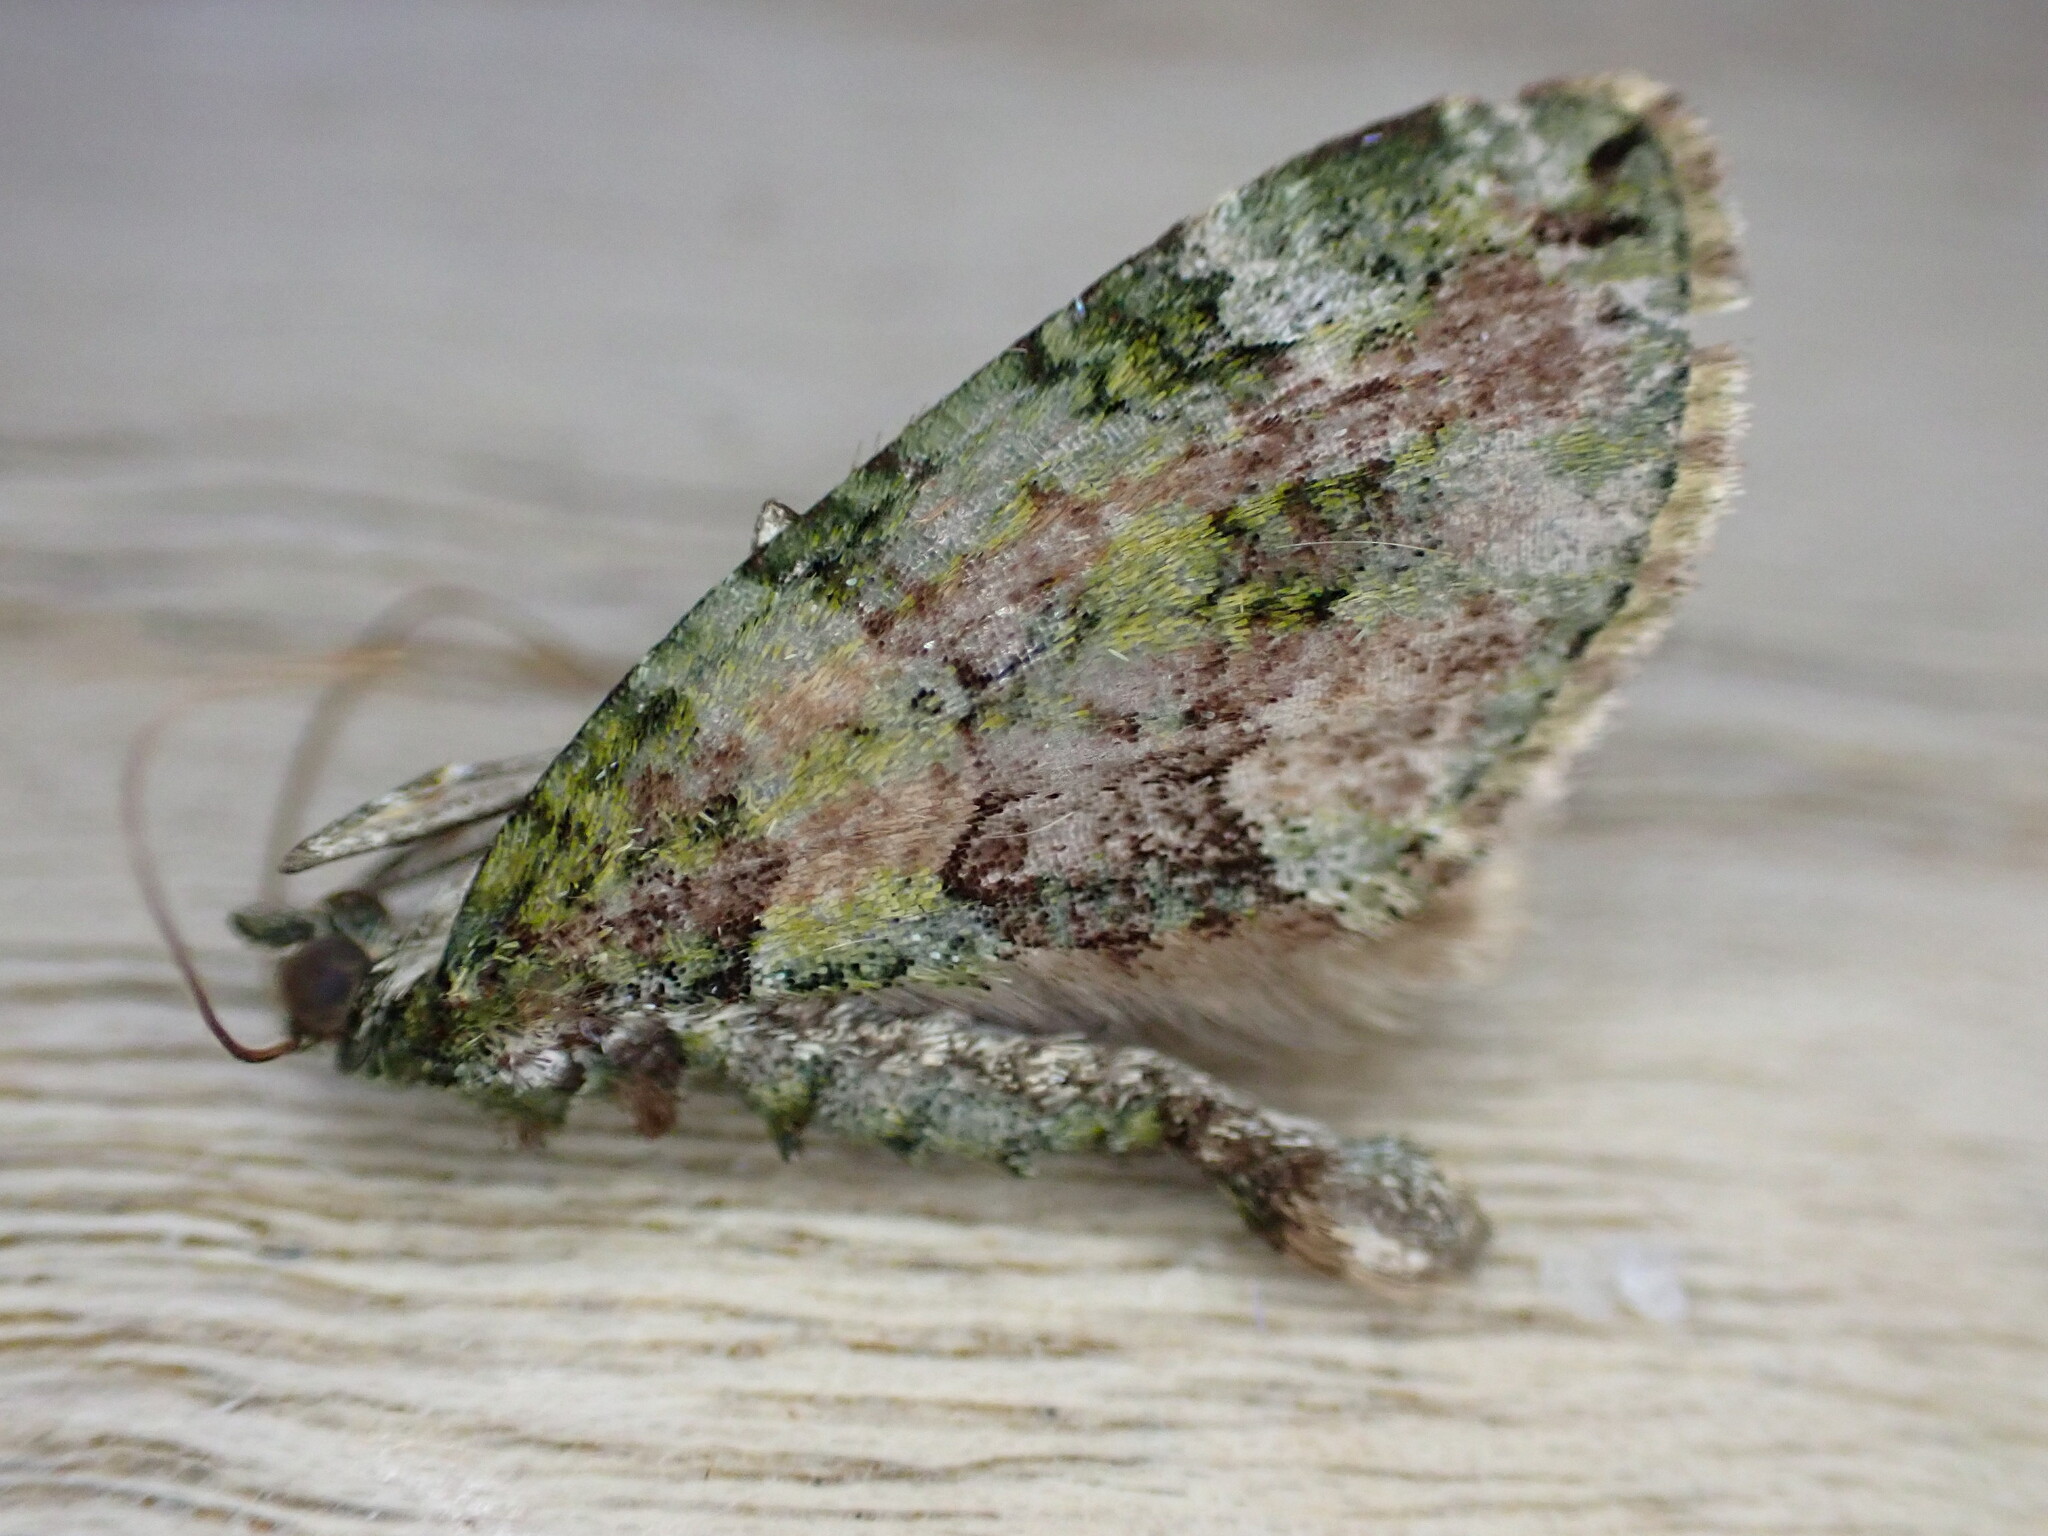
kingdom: Animalia
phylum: Arthropoda
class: Insecta
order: Lepidoptera
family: Geometridae
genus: Chloroclysta
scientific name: Chloroclysta siterata
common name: Red-green carpet
